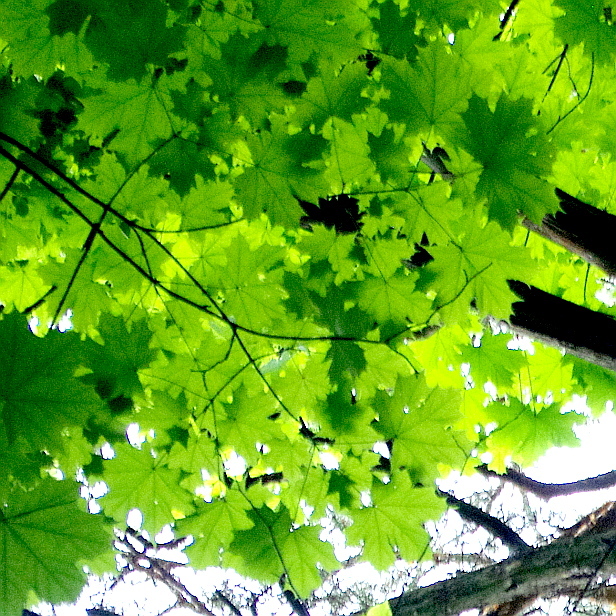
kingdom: Plantae
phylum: Tracheophyta
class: Magnoliopsida
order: Sapindales
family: Sapindaceae
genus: Acer
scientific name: Acer platanoides
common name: Norway maple
